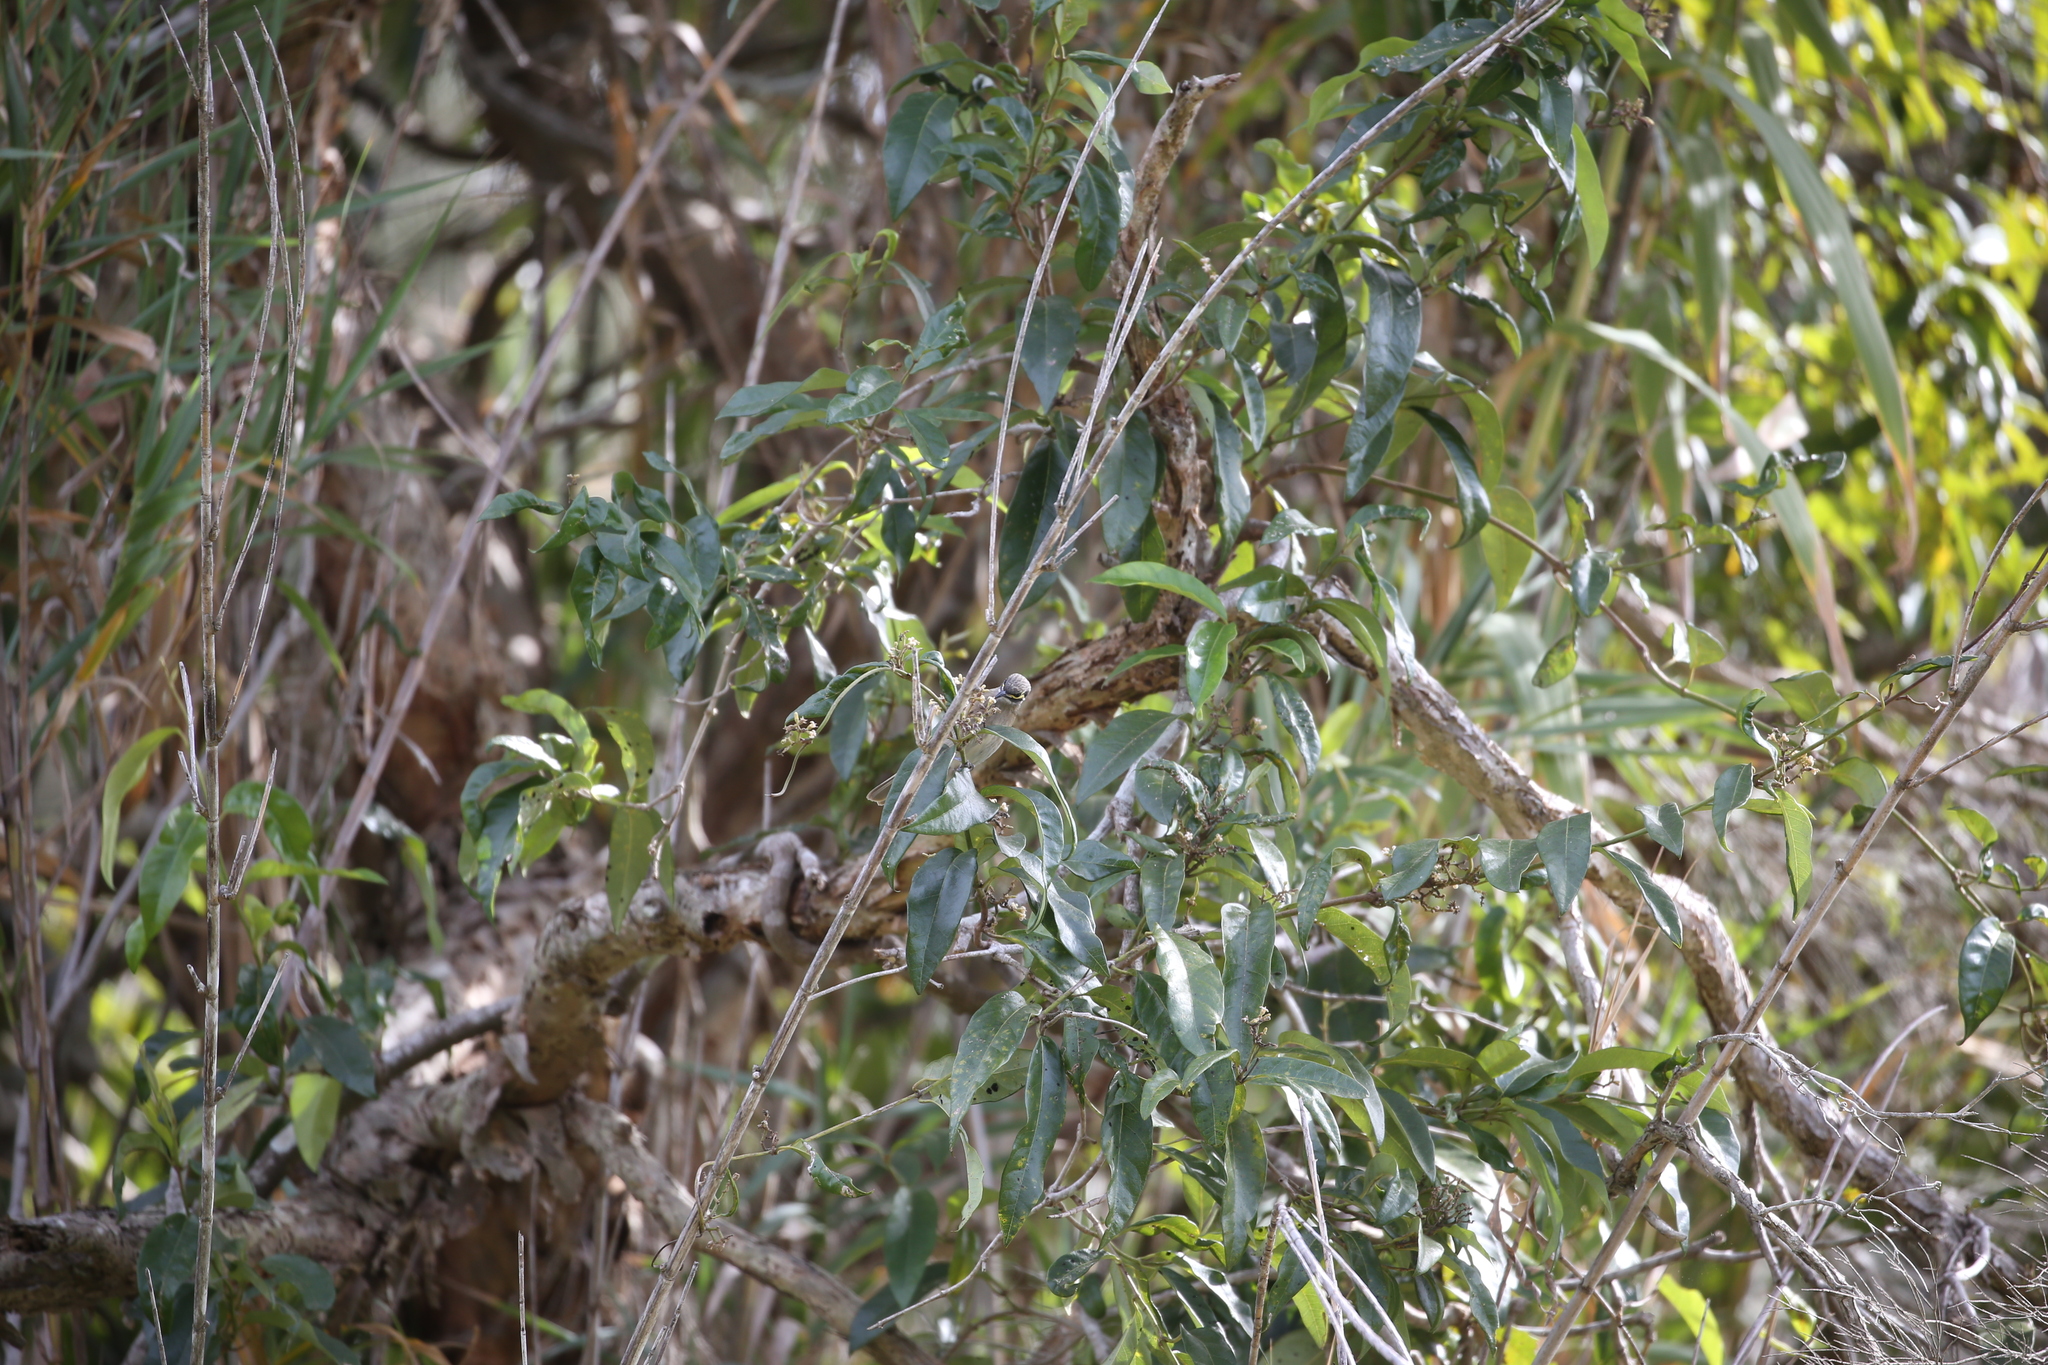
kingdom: Animalia
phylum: Chordata
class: Aves
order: Passeriformes
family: Meliphagidae
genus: Caligavis
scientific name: Caligavis chrysops
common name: Yellow-faced honeyeater
